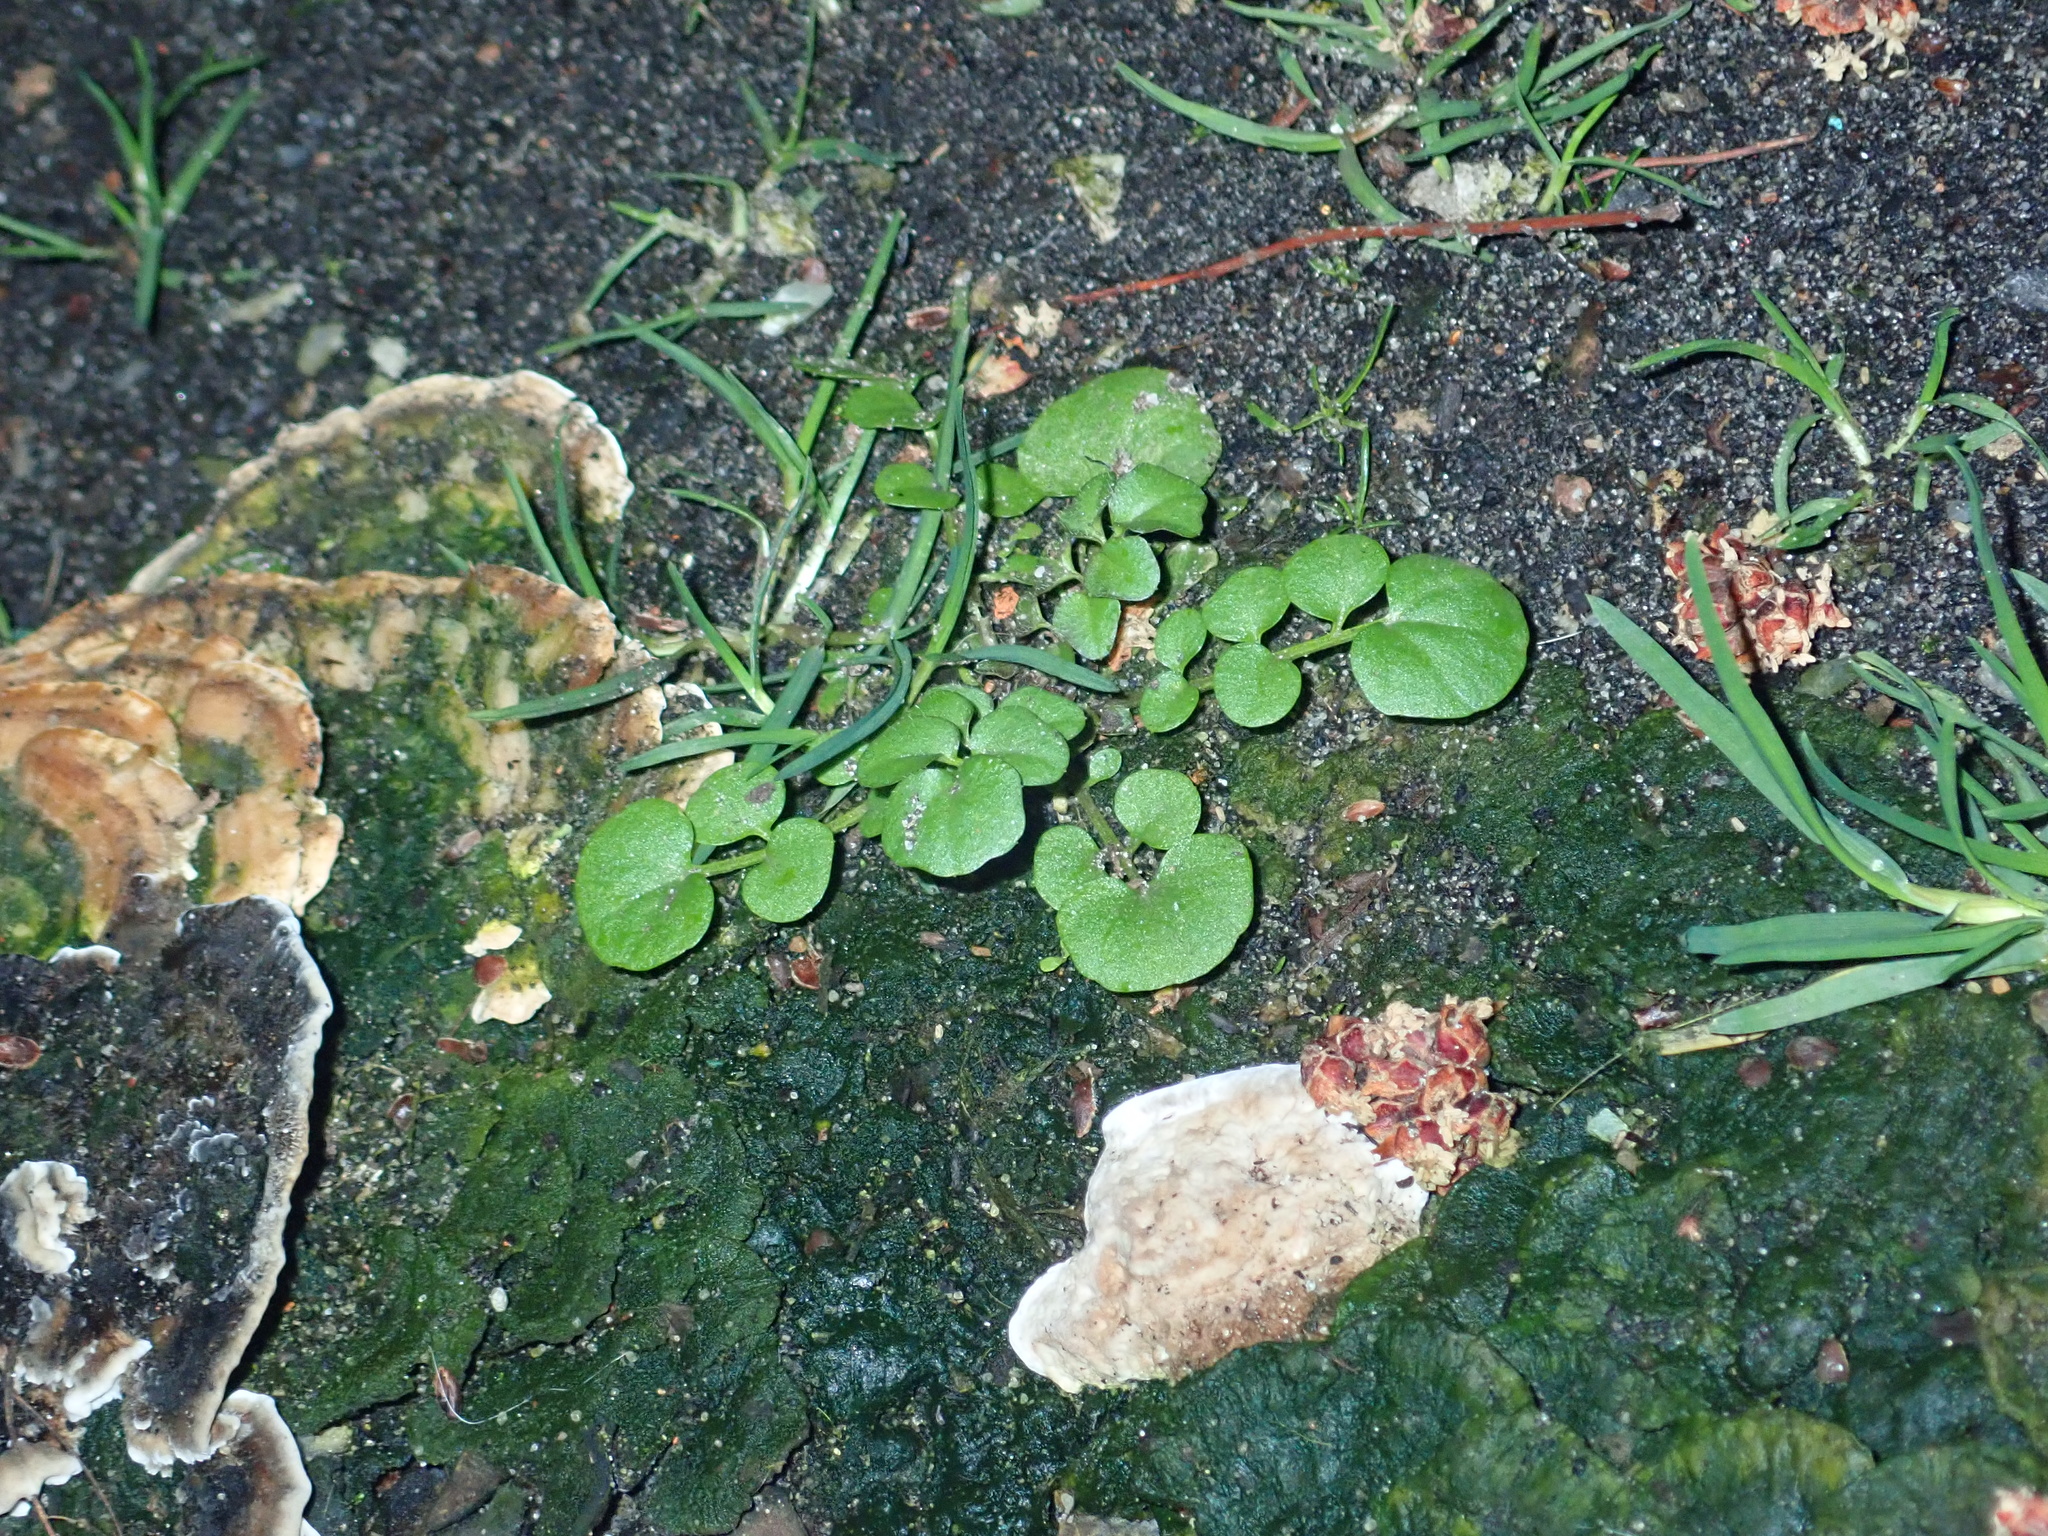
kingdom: Plantae
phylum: Tracheophyta
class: Magnoliopsida
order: Brassicales
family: Brassicaceae
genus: Cardamine
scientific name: Cardamine hirsuta
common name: Hairy bittercress
